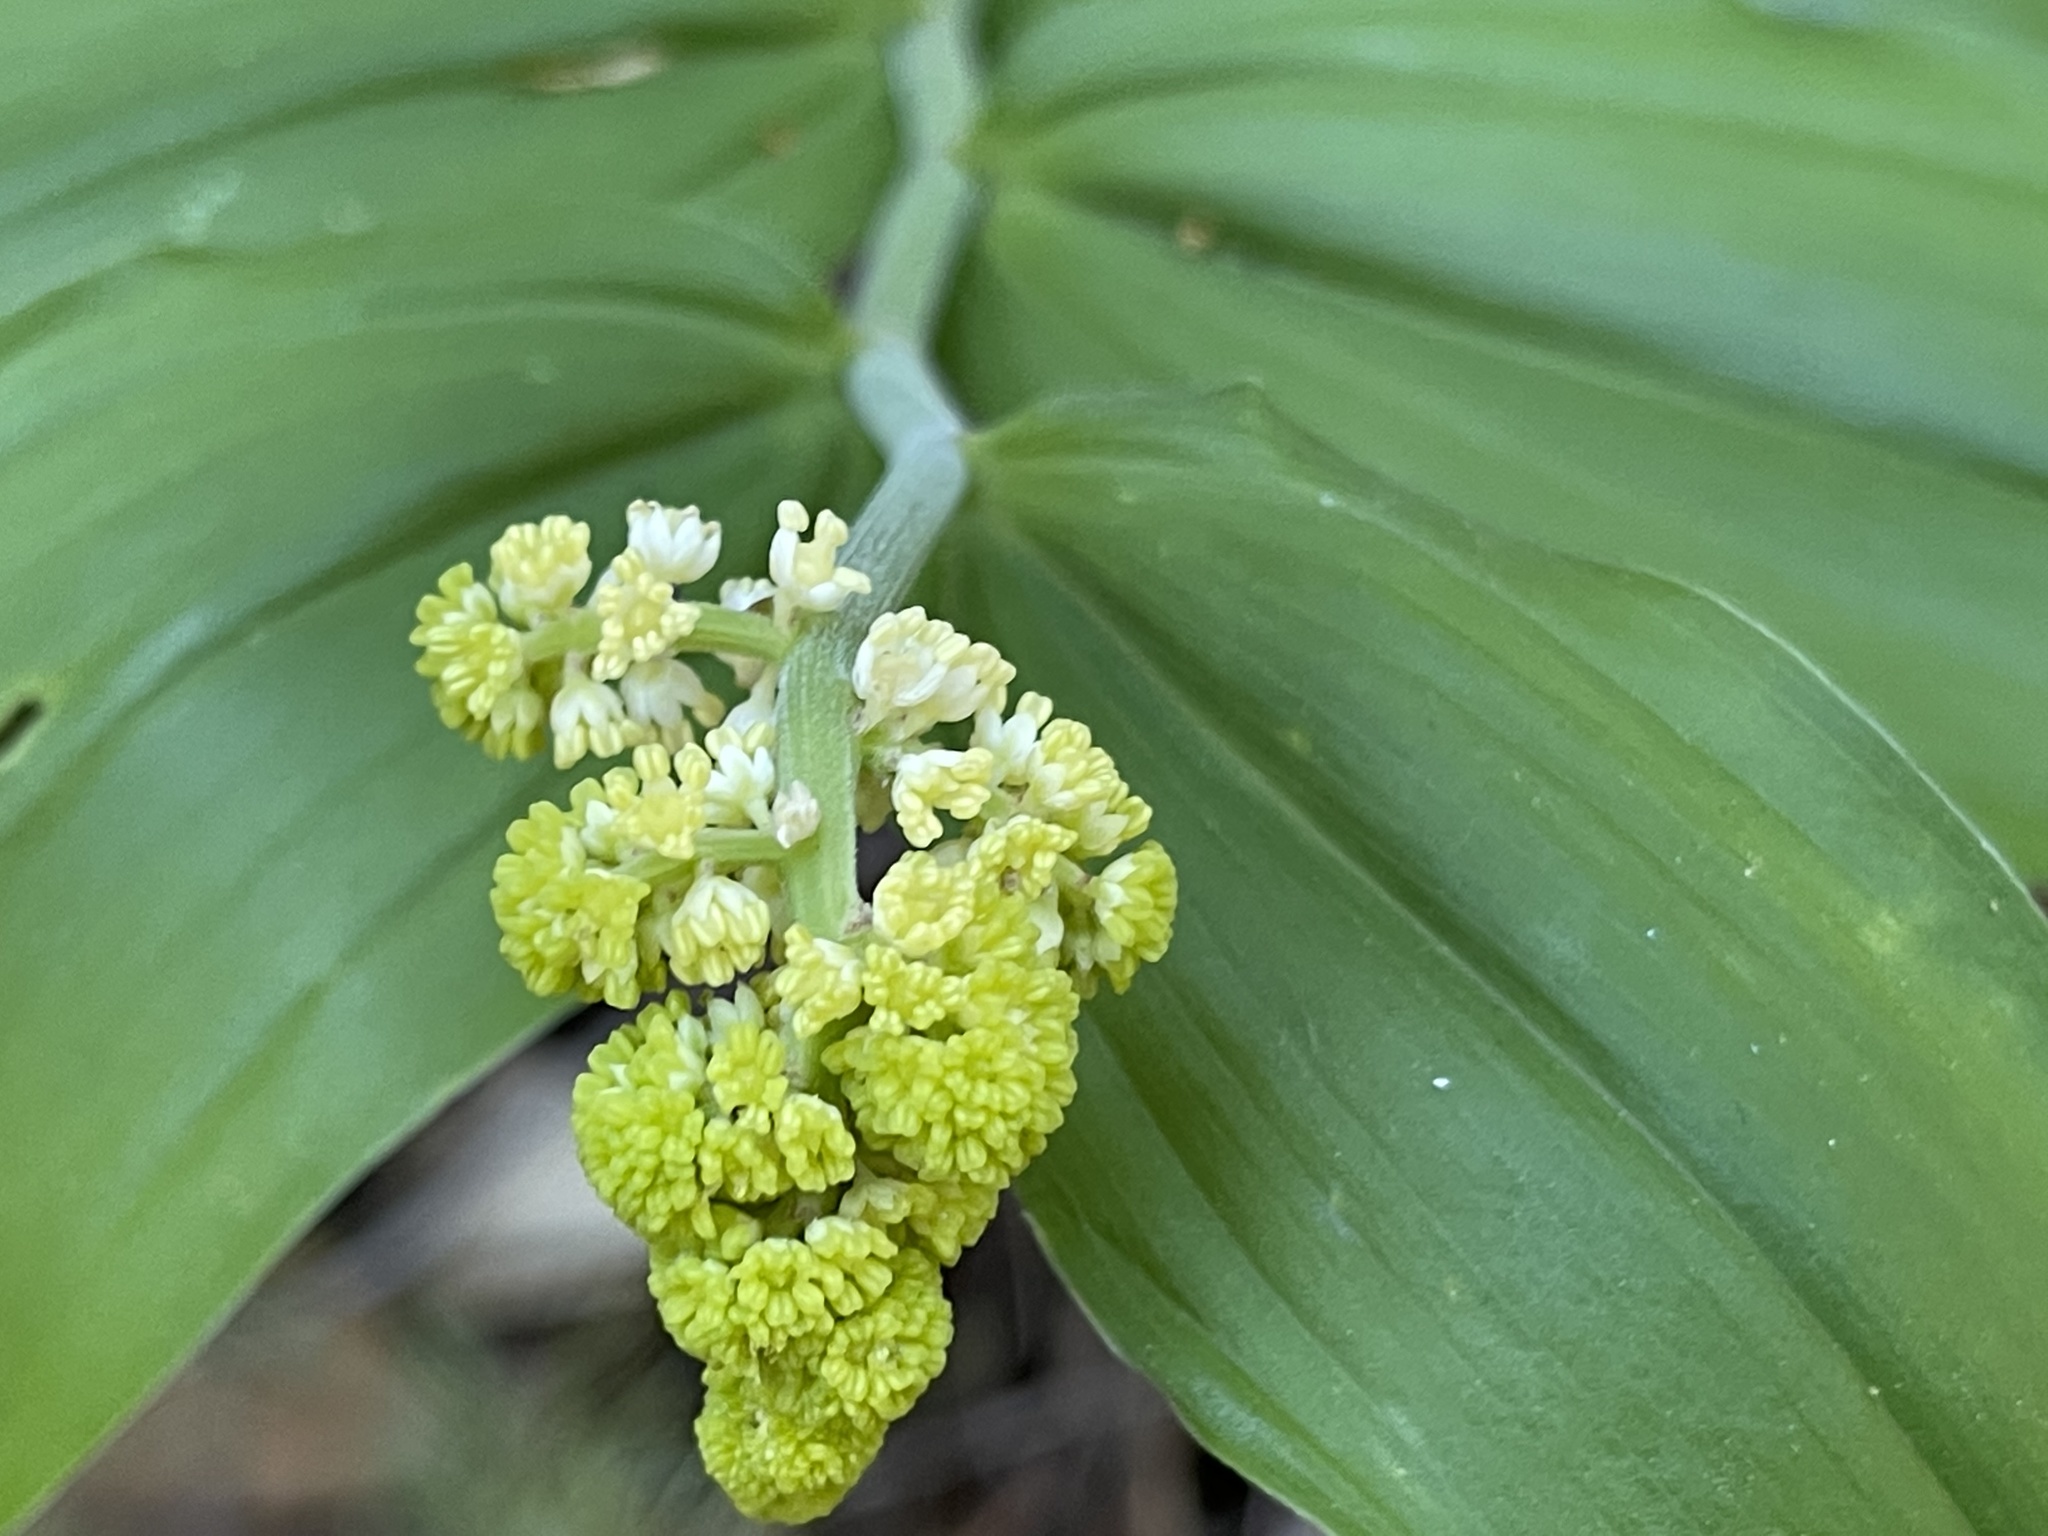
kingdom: Plantae
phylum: Tracheophyta
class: Liliopsida
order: Asparagales
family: Asparagaceae
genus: Maianthemum
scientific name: Maianthemum racemosum
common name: False spikenard
